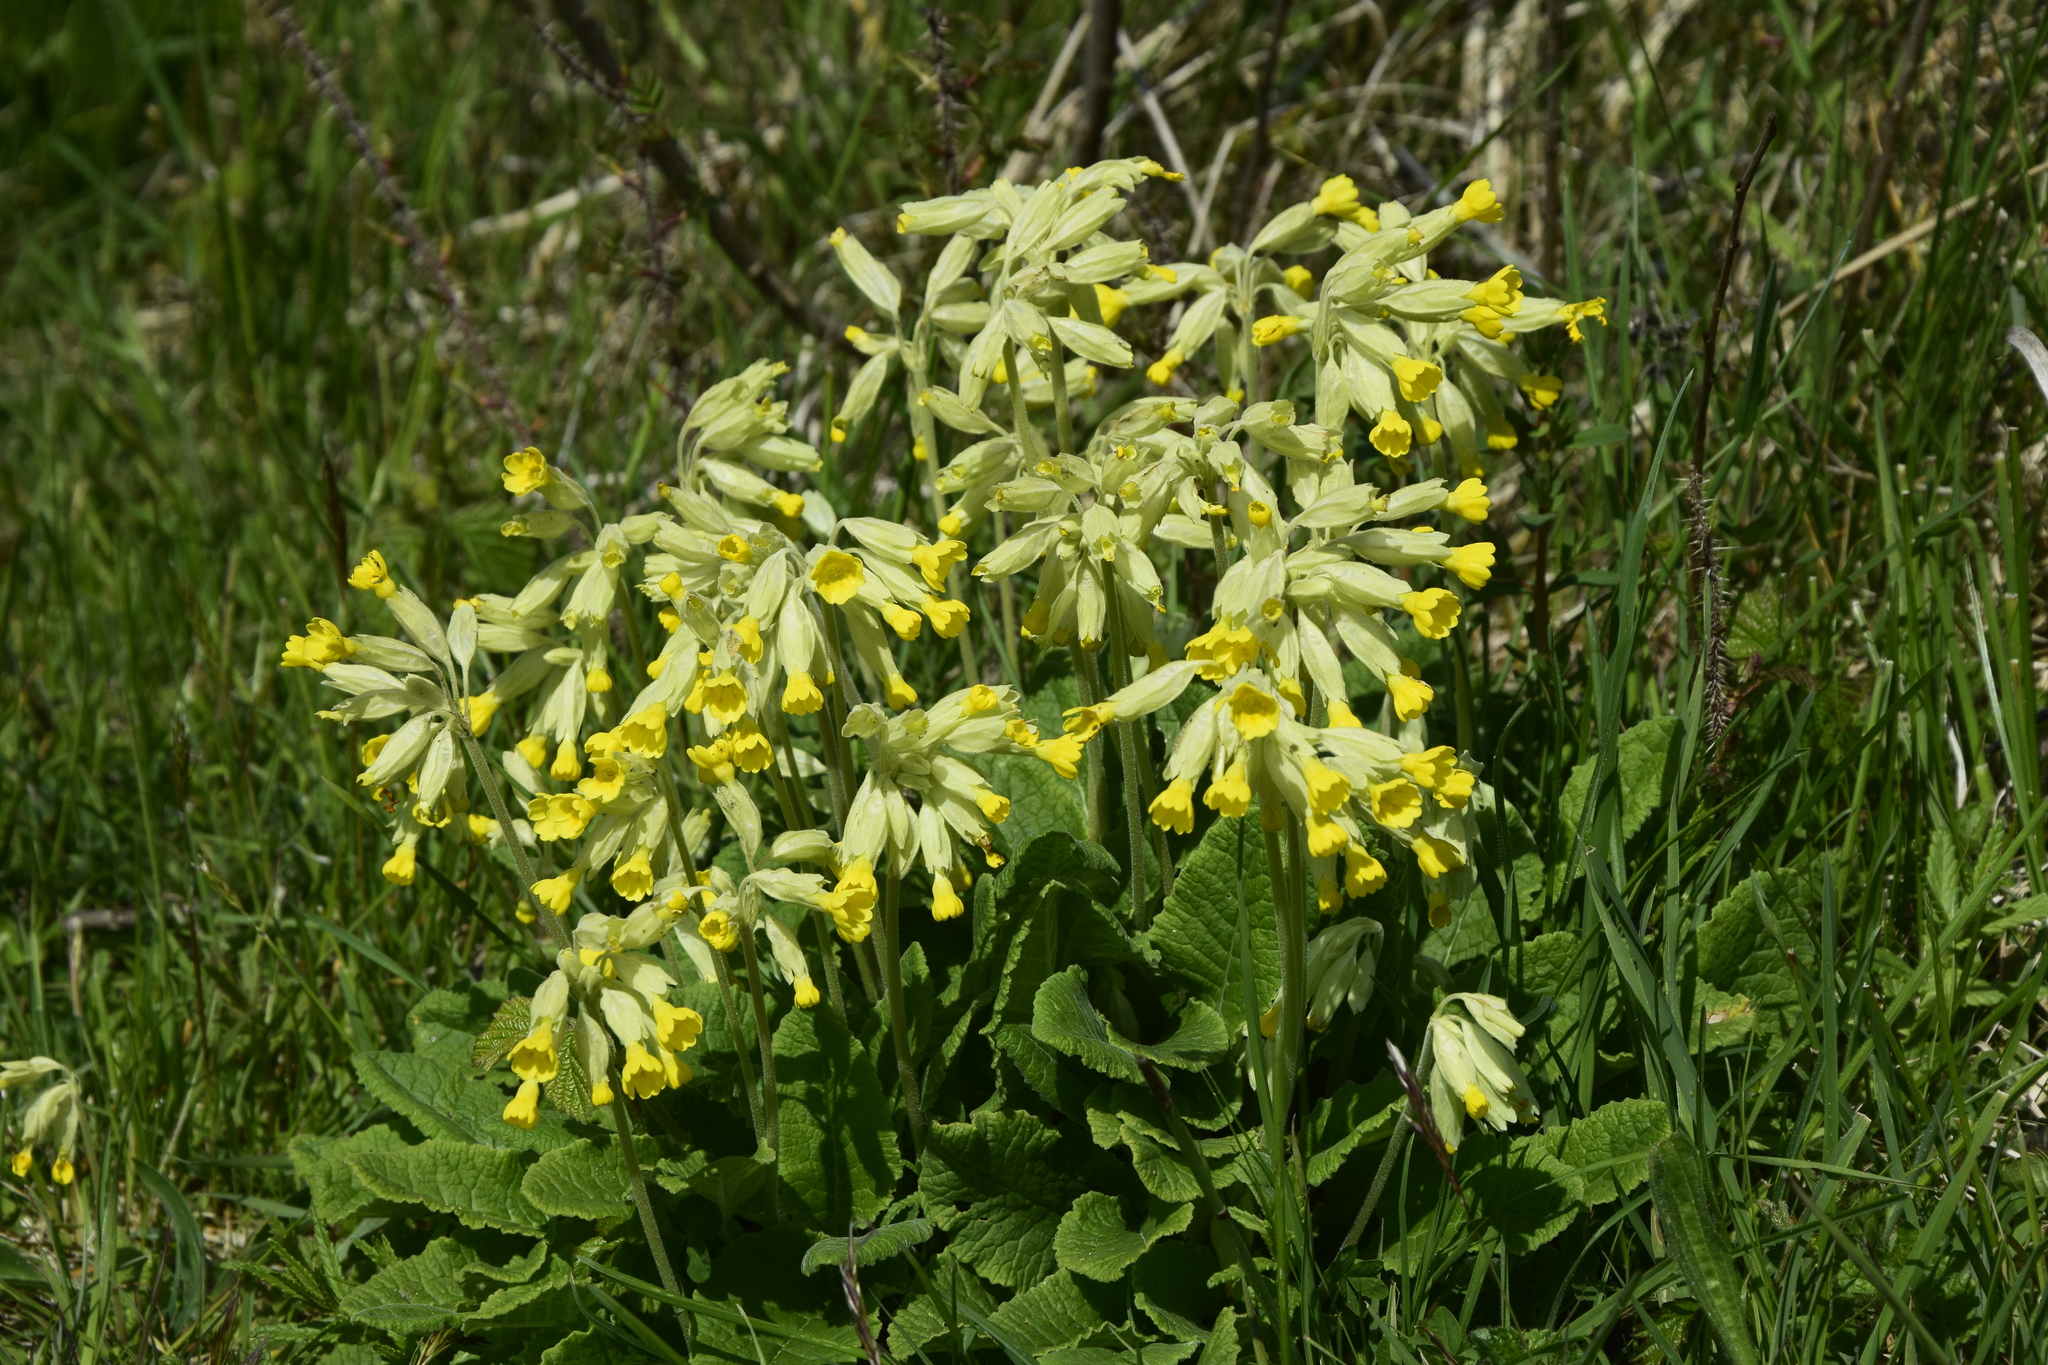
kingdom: Plantae
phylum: Tracheophyta
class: Magnoliopsida
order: Ericales
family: Primulaceae
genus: Primula
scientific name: Primula veris
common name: Cowslip
